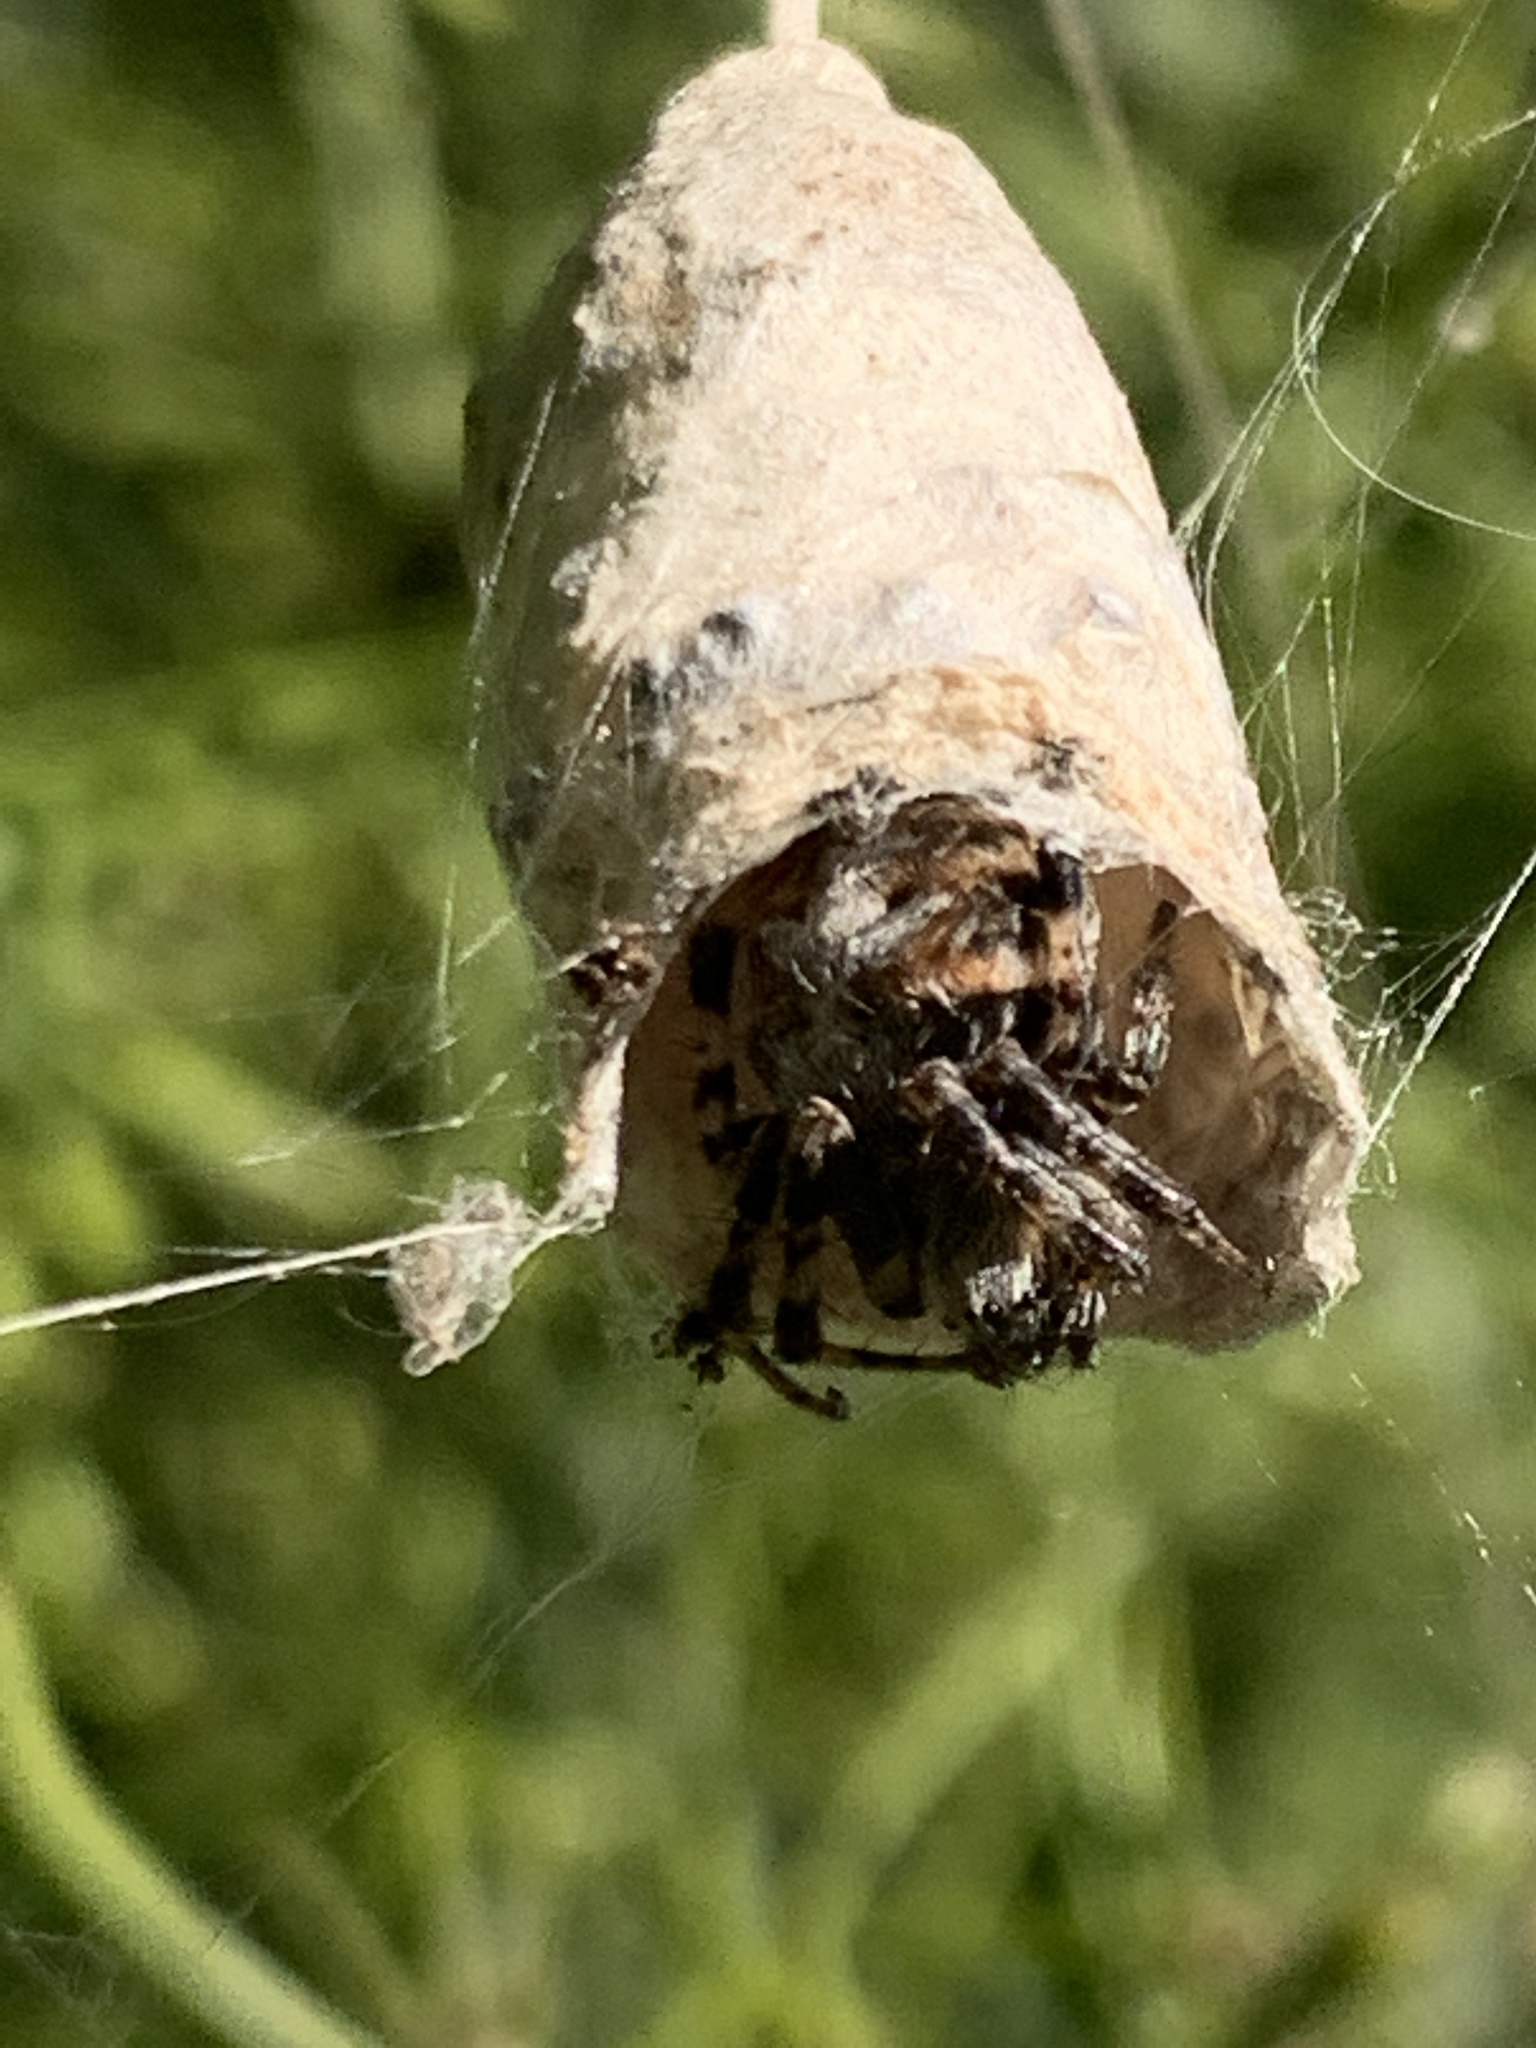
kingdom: Animalia
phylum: Arthropoda
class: Arachnida
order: Araneae
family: Araneidae
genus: Metepeira
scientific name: Metepeira
